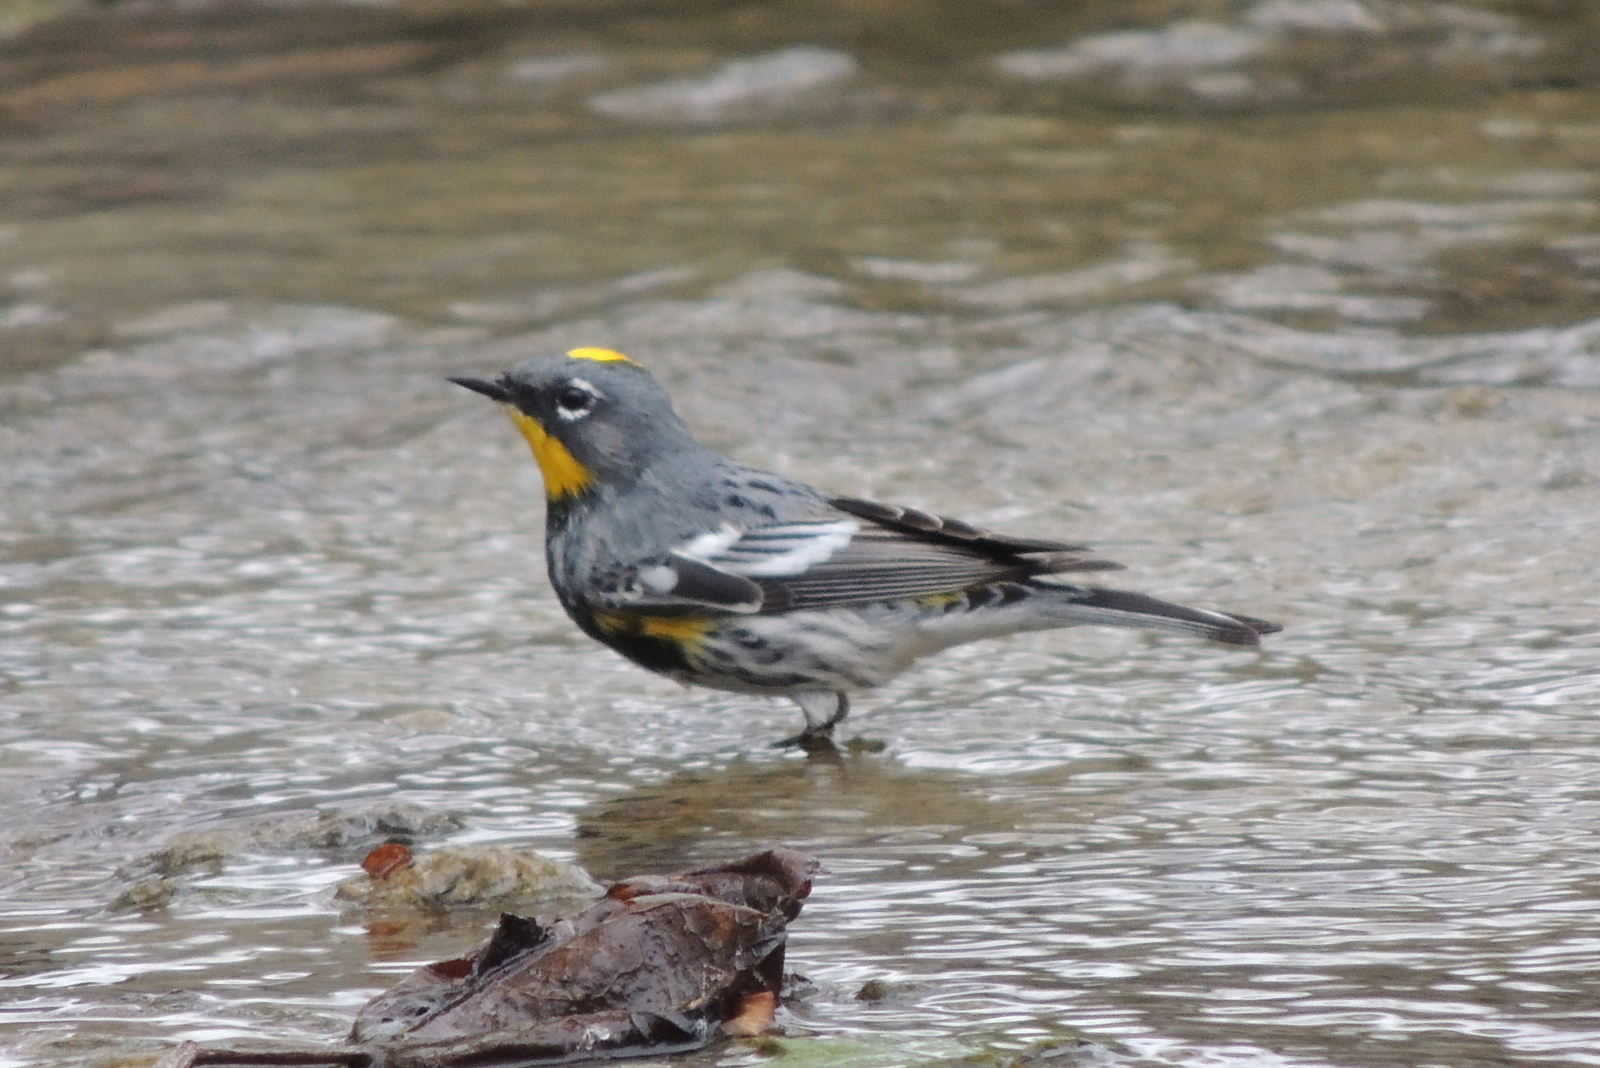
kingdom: Animalia
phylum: Chordata
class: Aves
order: Passeriformes
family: Parulidae
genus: Setophaga
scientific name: Setophaga coronata
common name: Myrtle warbler
